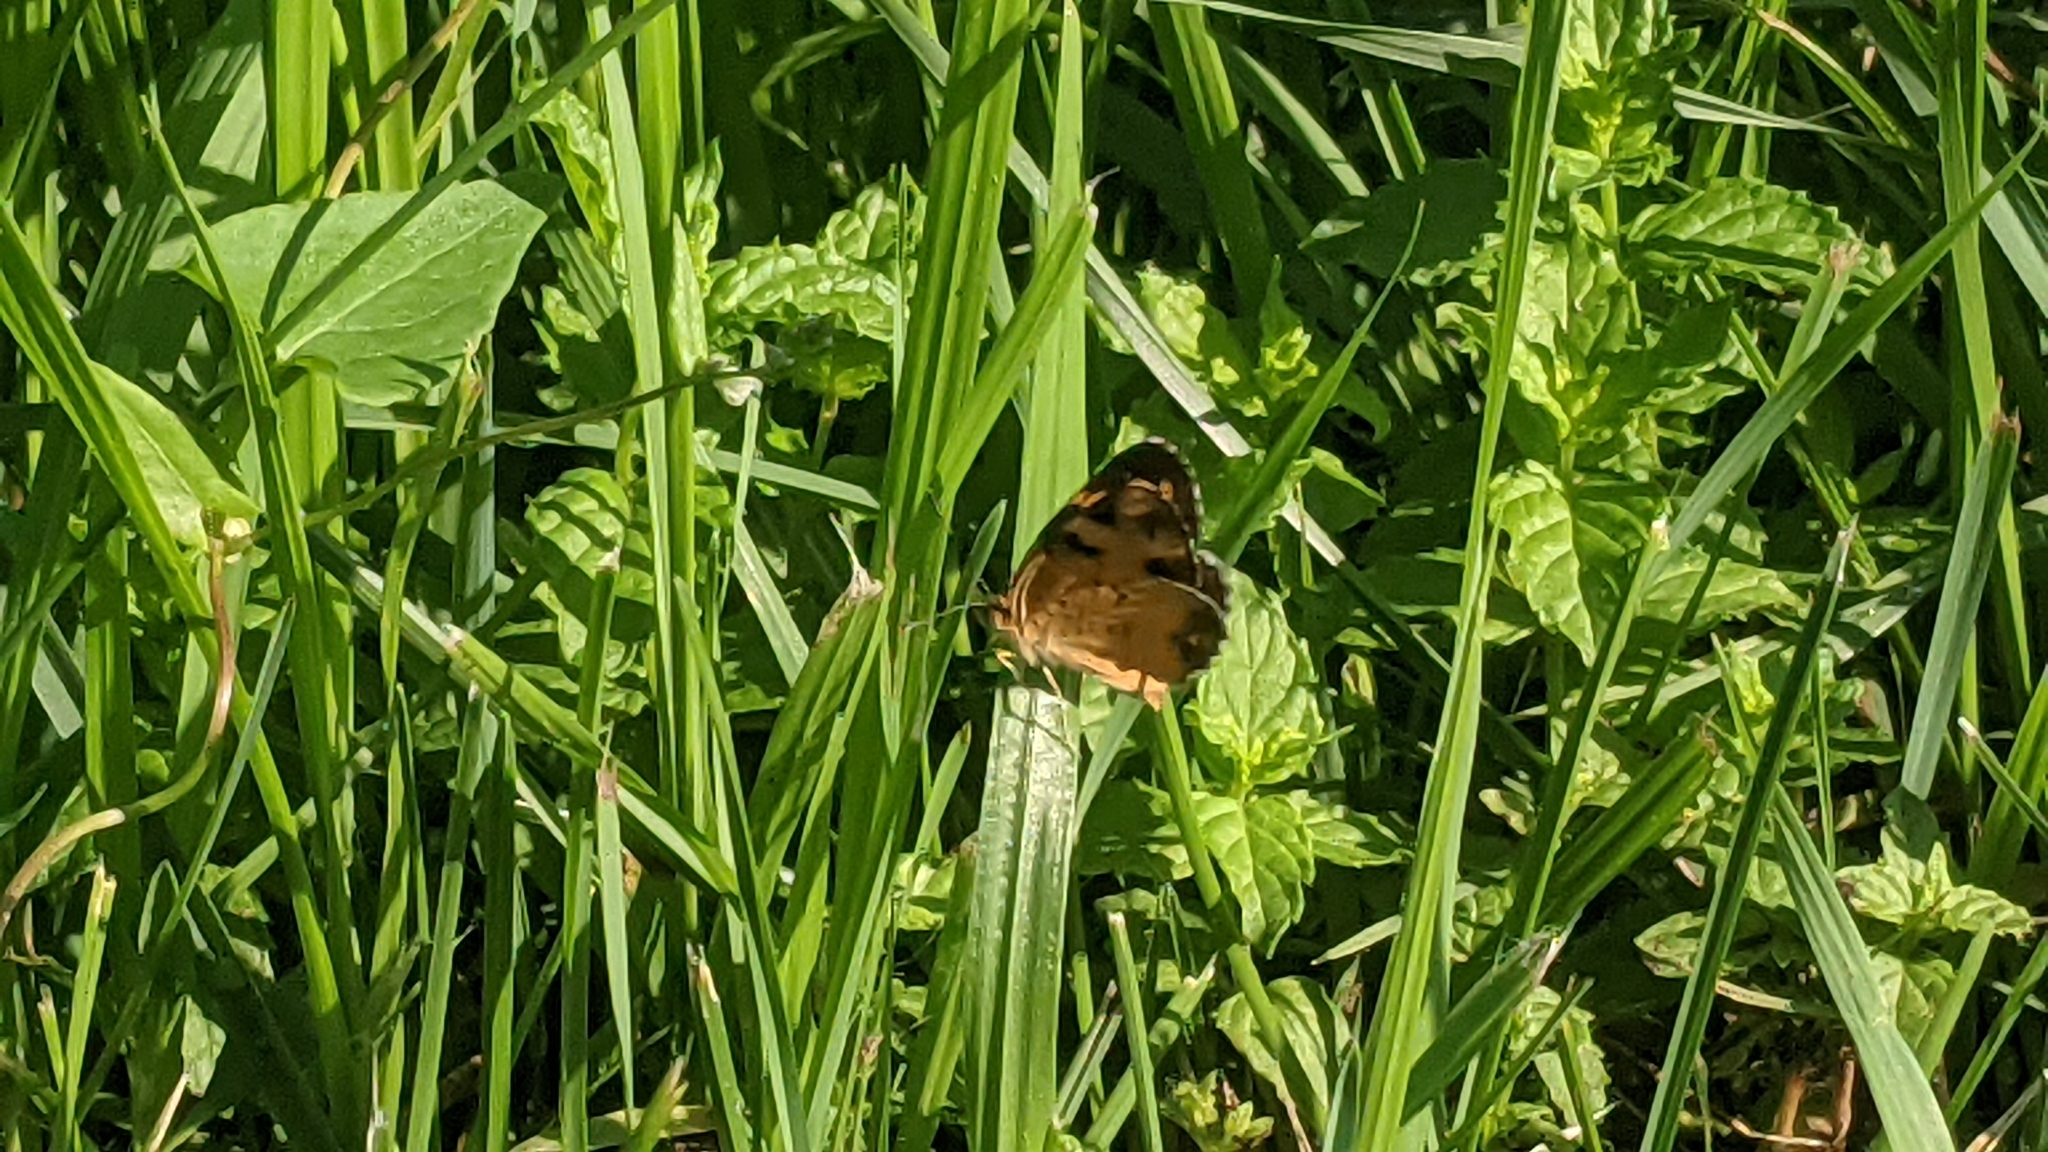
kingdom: Animalia
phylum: Arthropoda
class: Insecta
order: Lepidoptera
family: Nymphalidae
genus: Phyciodes
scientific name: Phyciodes tharos
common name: Pearl crescent
